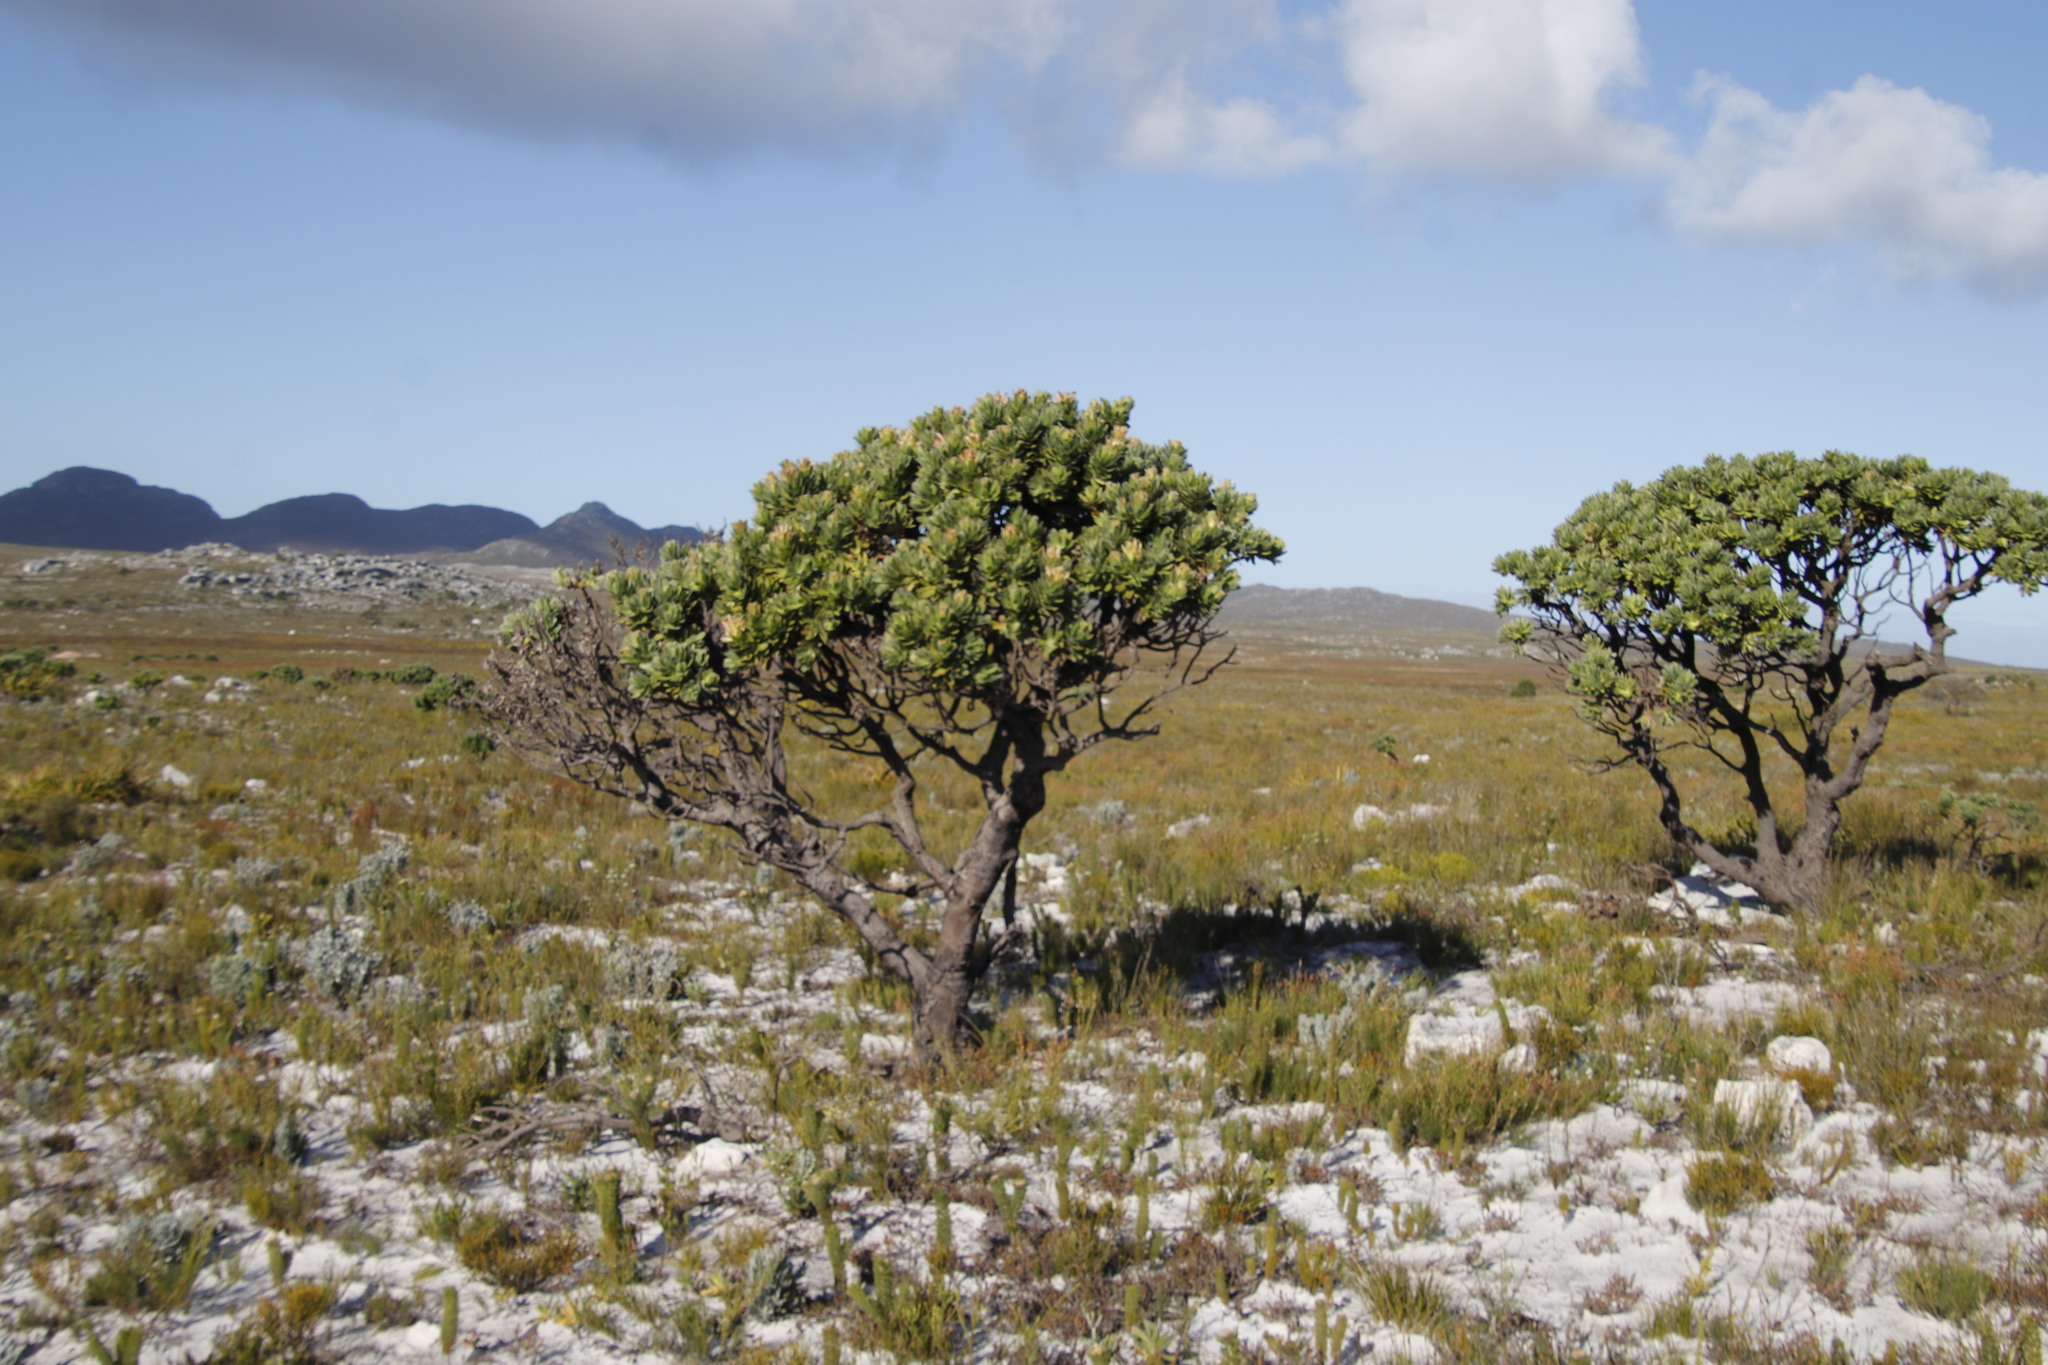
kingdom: Plantae
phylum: Tracheophyta
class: Magnoliopsida
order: Proteales
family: Proteaceae
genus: Mimetes
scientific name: Mimetes fimbriifolius
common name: Fringed bottlebrush
